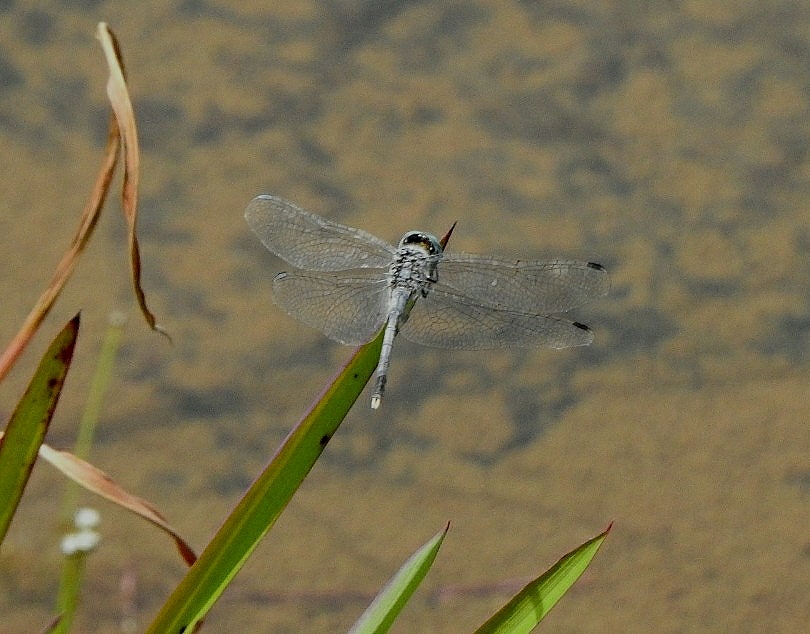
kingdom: Animalia
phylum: Arthropoda
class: Insecta
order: Odonata
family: Libellulidae
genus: Diplacodes
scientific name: Diplacodes trivialis
